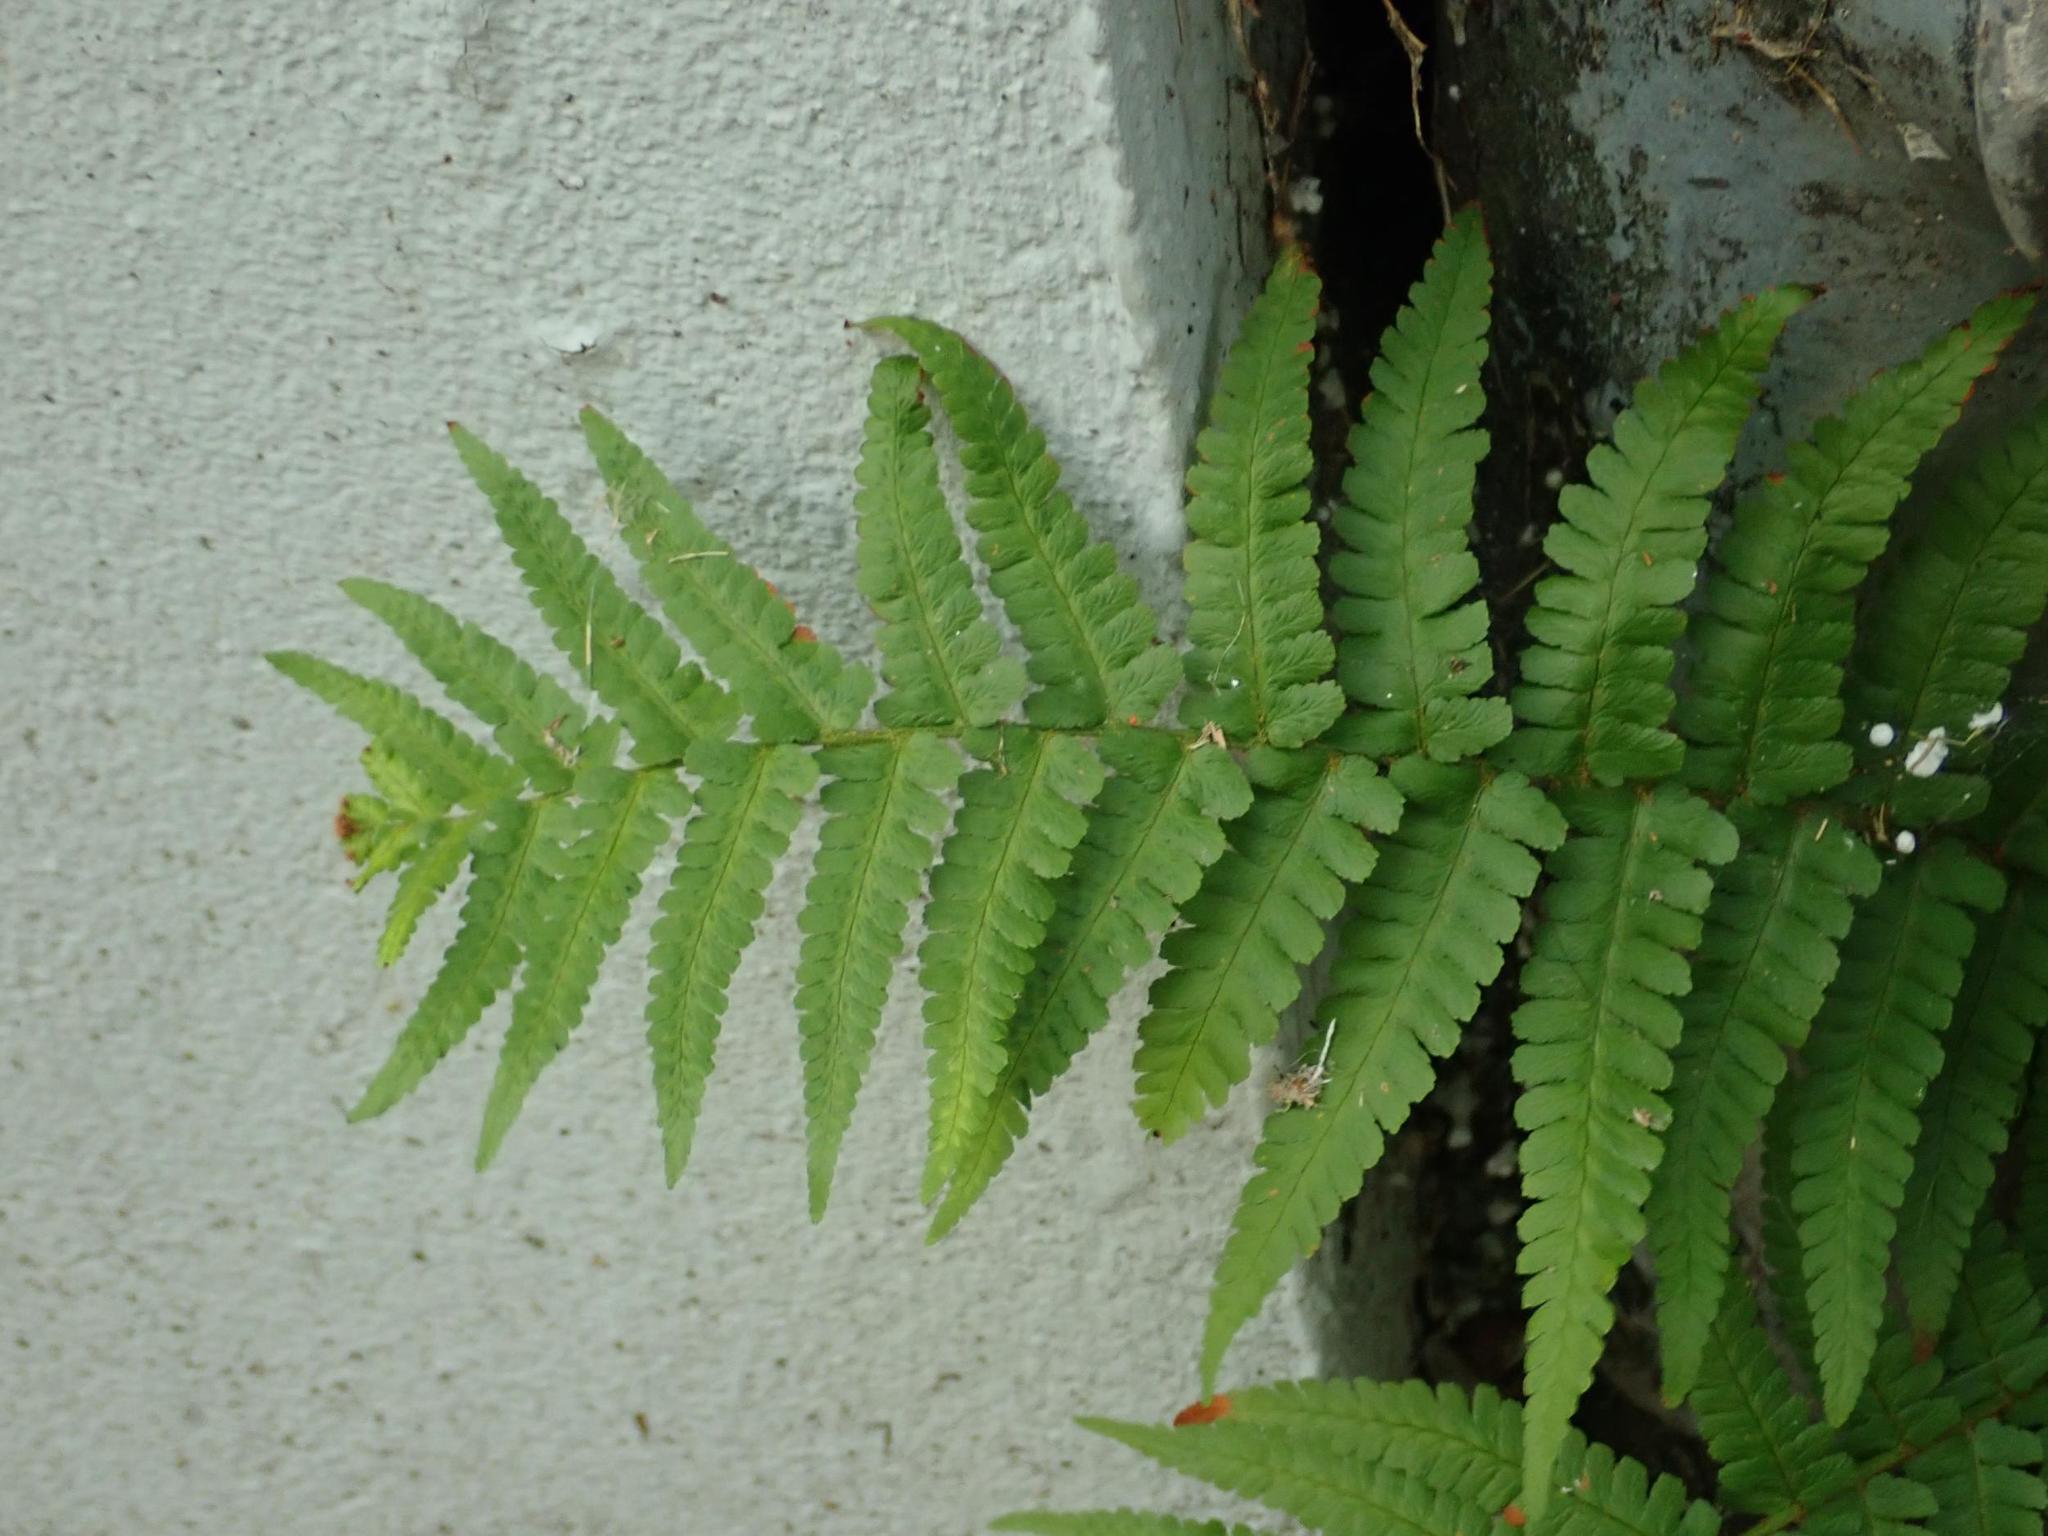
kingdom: Plantae
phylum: Tracheophyta
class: Polypodiopsida
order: Polypodiales
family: Dryopteridaceae
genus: Dryopteris
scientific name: Dryopteris filix-mas
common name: Male fern
